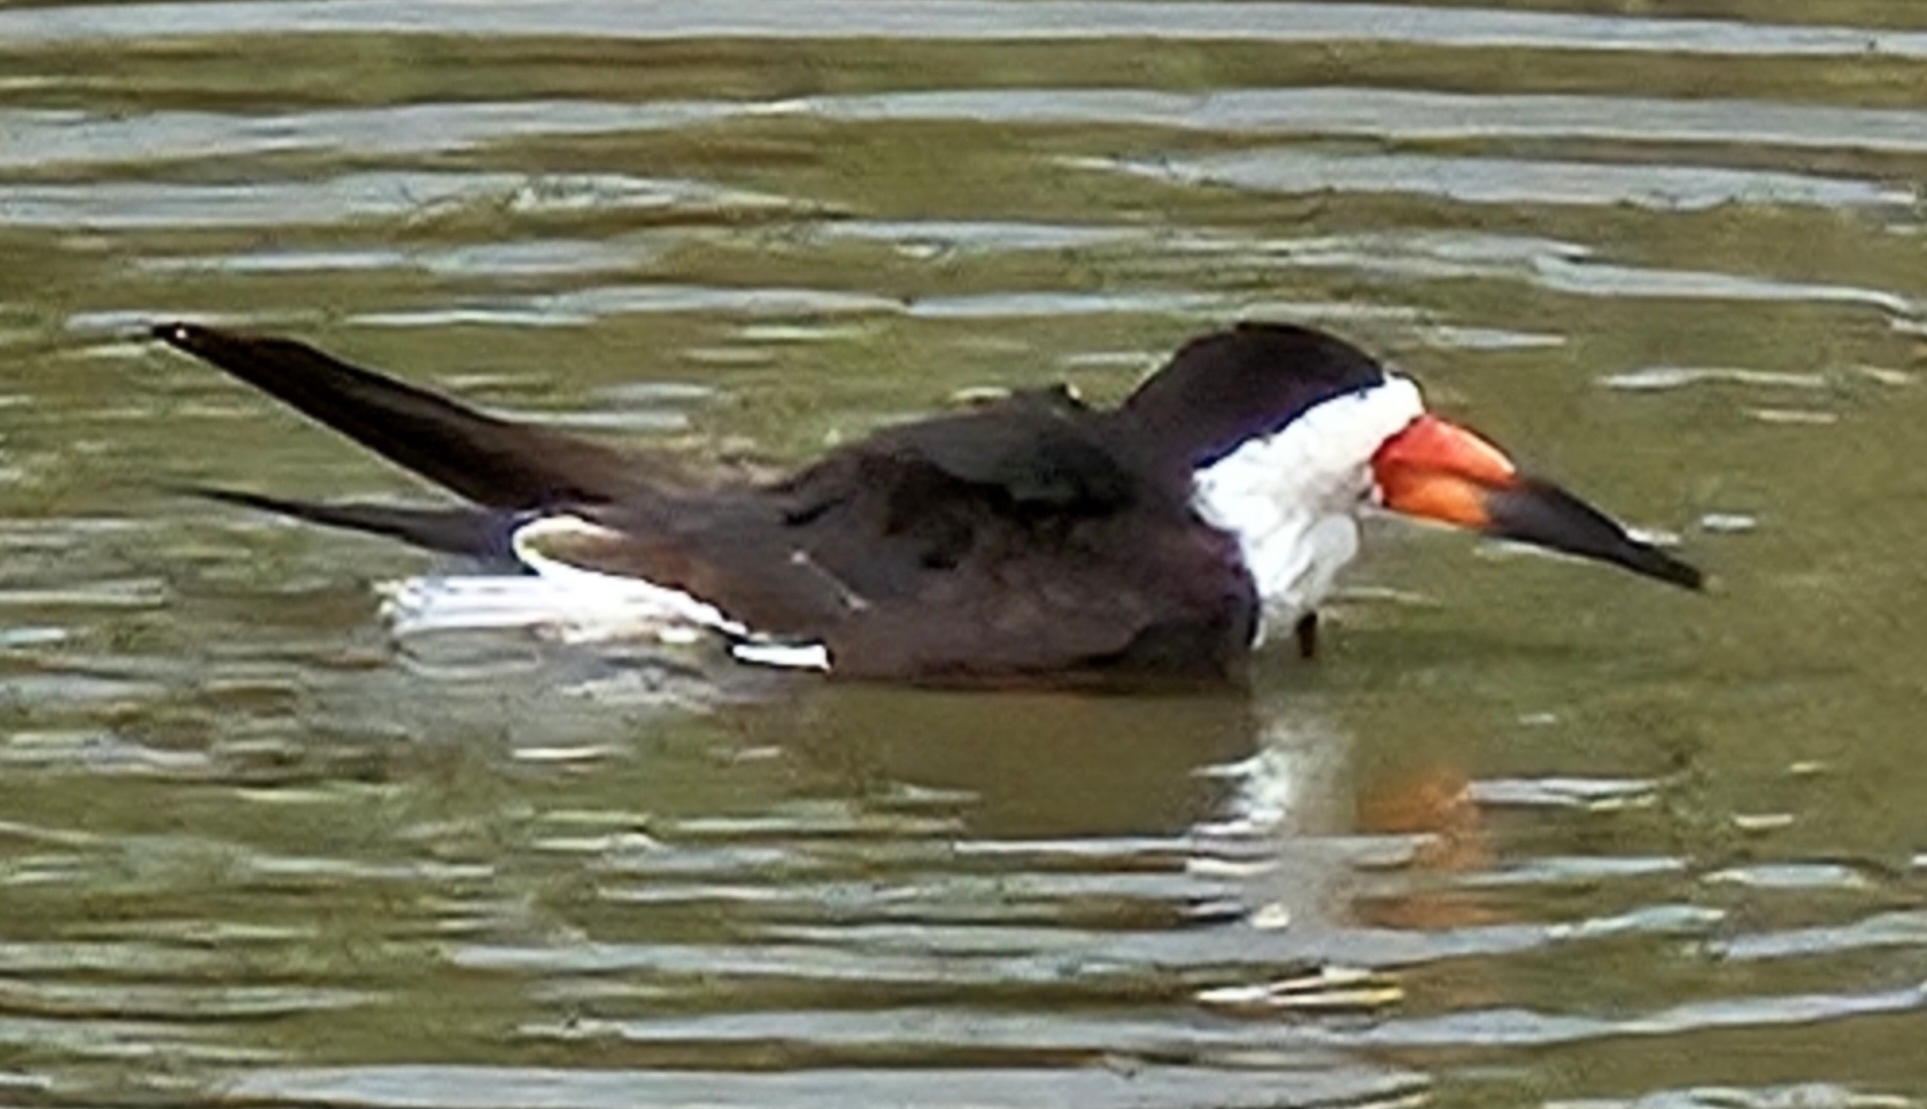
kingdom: Animalia
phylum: Chordata
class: Aves
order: Charadriiformes
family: Laridae
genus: Rynchops
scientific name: Rynchops niger
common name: Black skimmer
